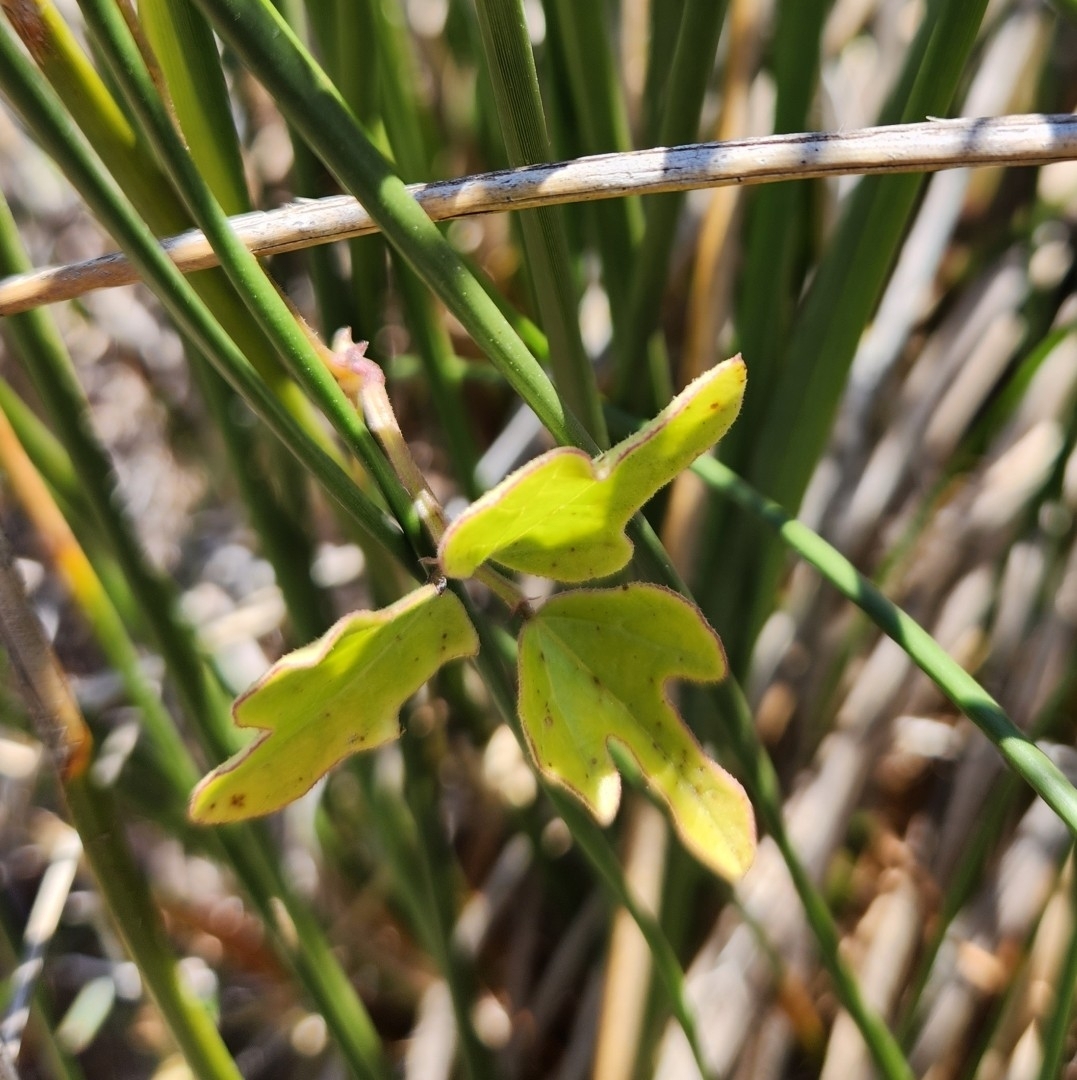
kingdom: Plantae
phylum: Tracheophyta
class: Magnoliopsida
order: Fabales
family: Fabaceae
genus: Phaseolus
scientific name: Phaseolus filiformis
